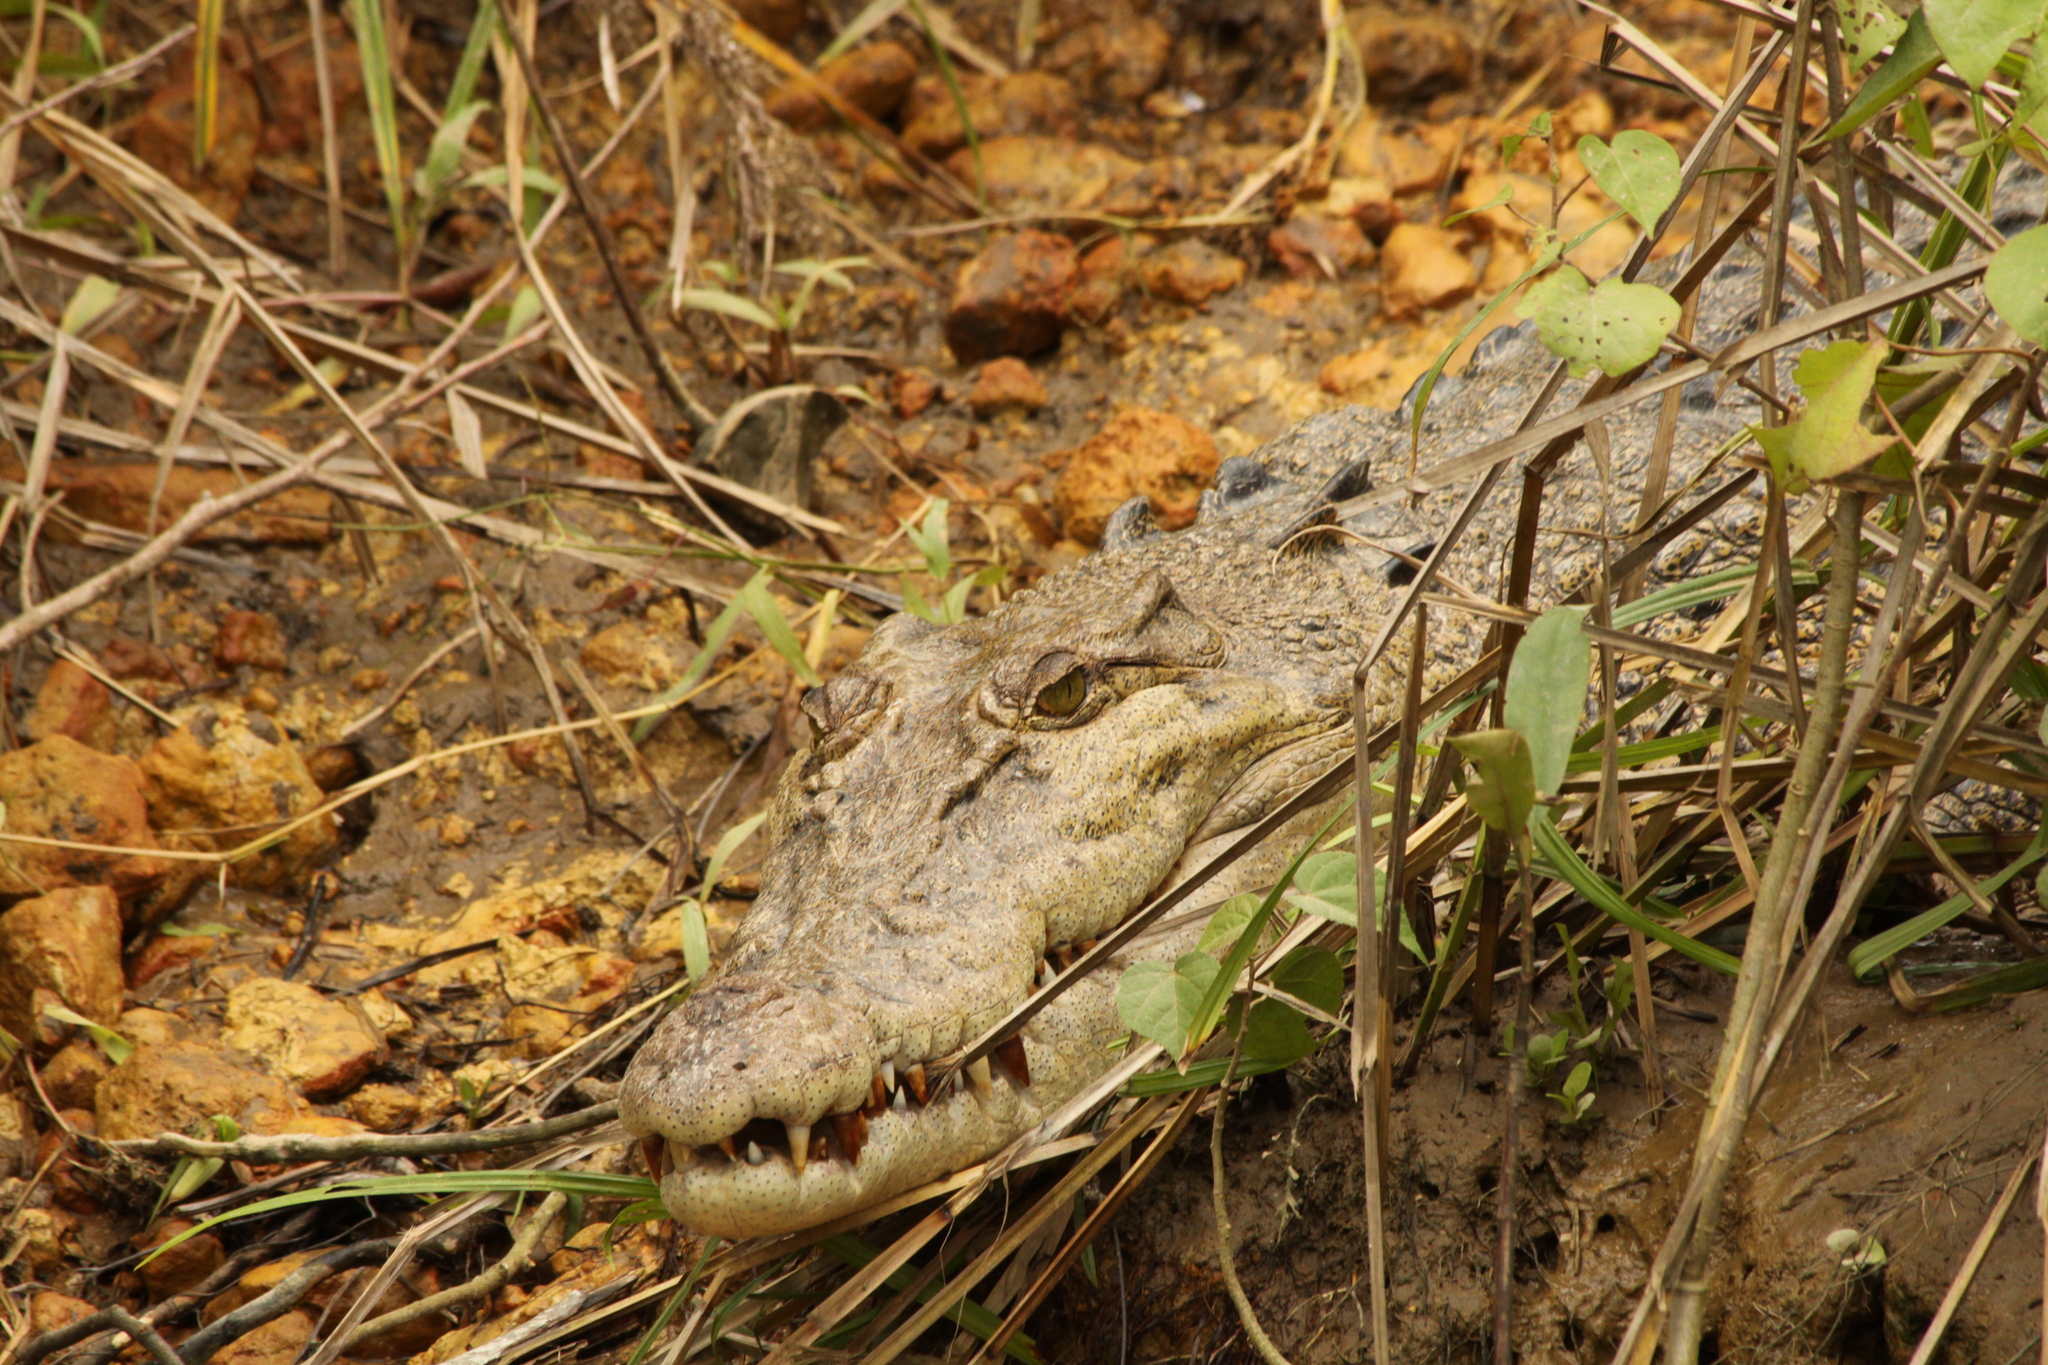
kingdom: Animalia
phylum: Chordata
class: Crocodylia
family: Crocodylidae
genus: Crocodylus
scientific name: Crocodylus porosus
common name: Saltwater crocodile
